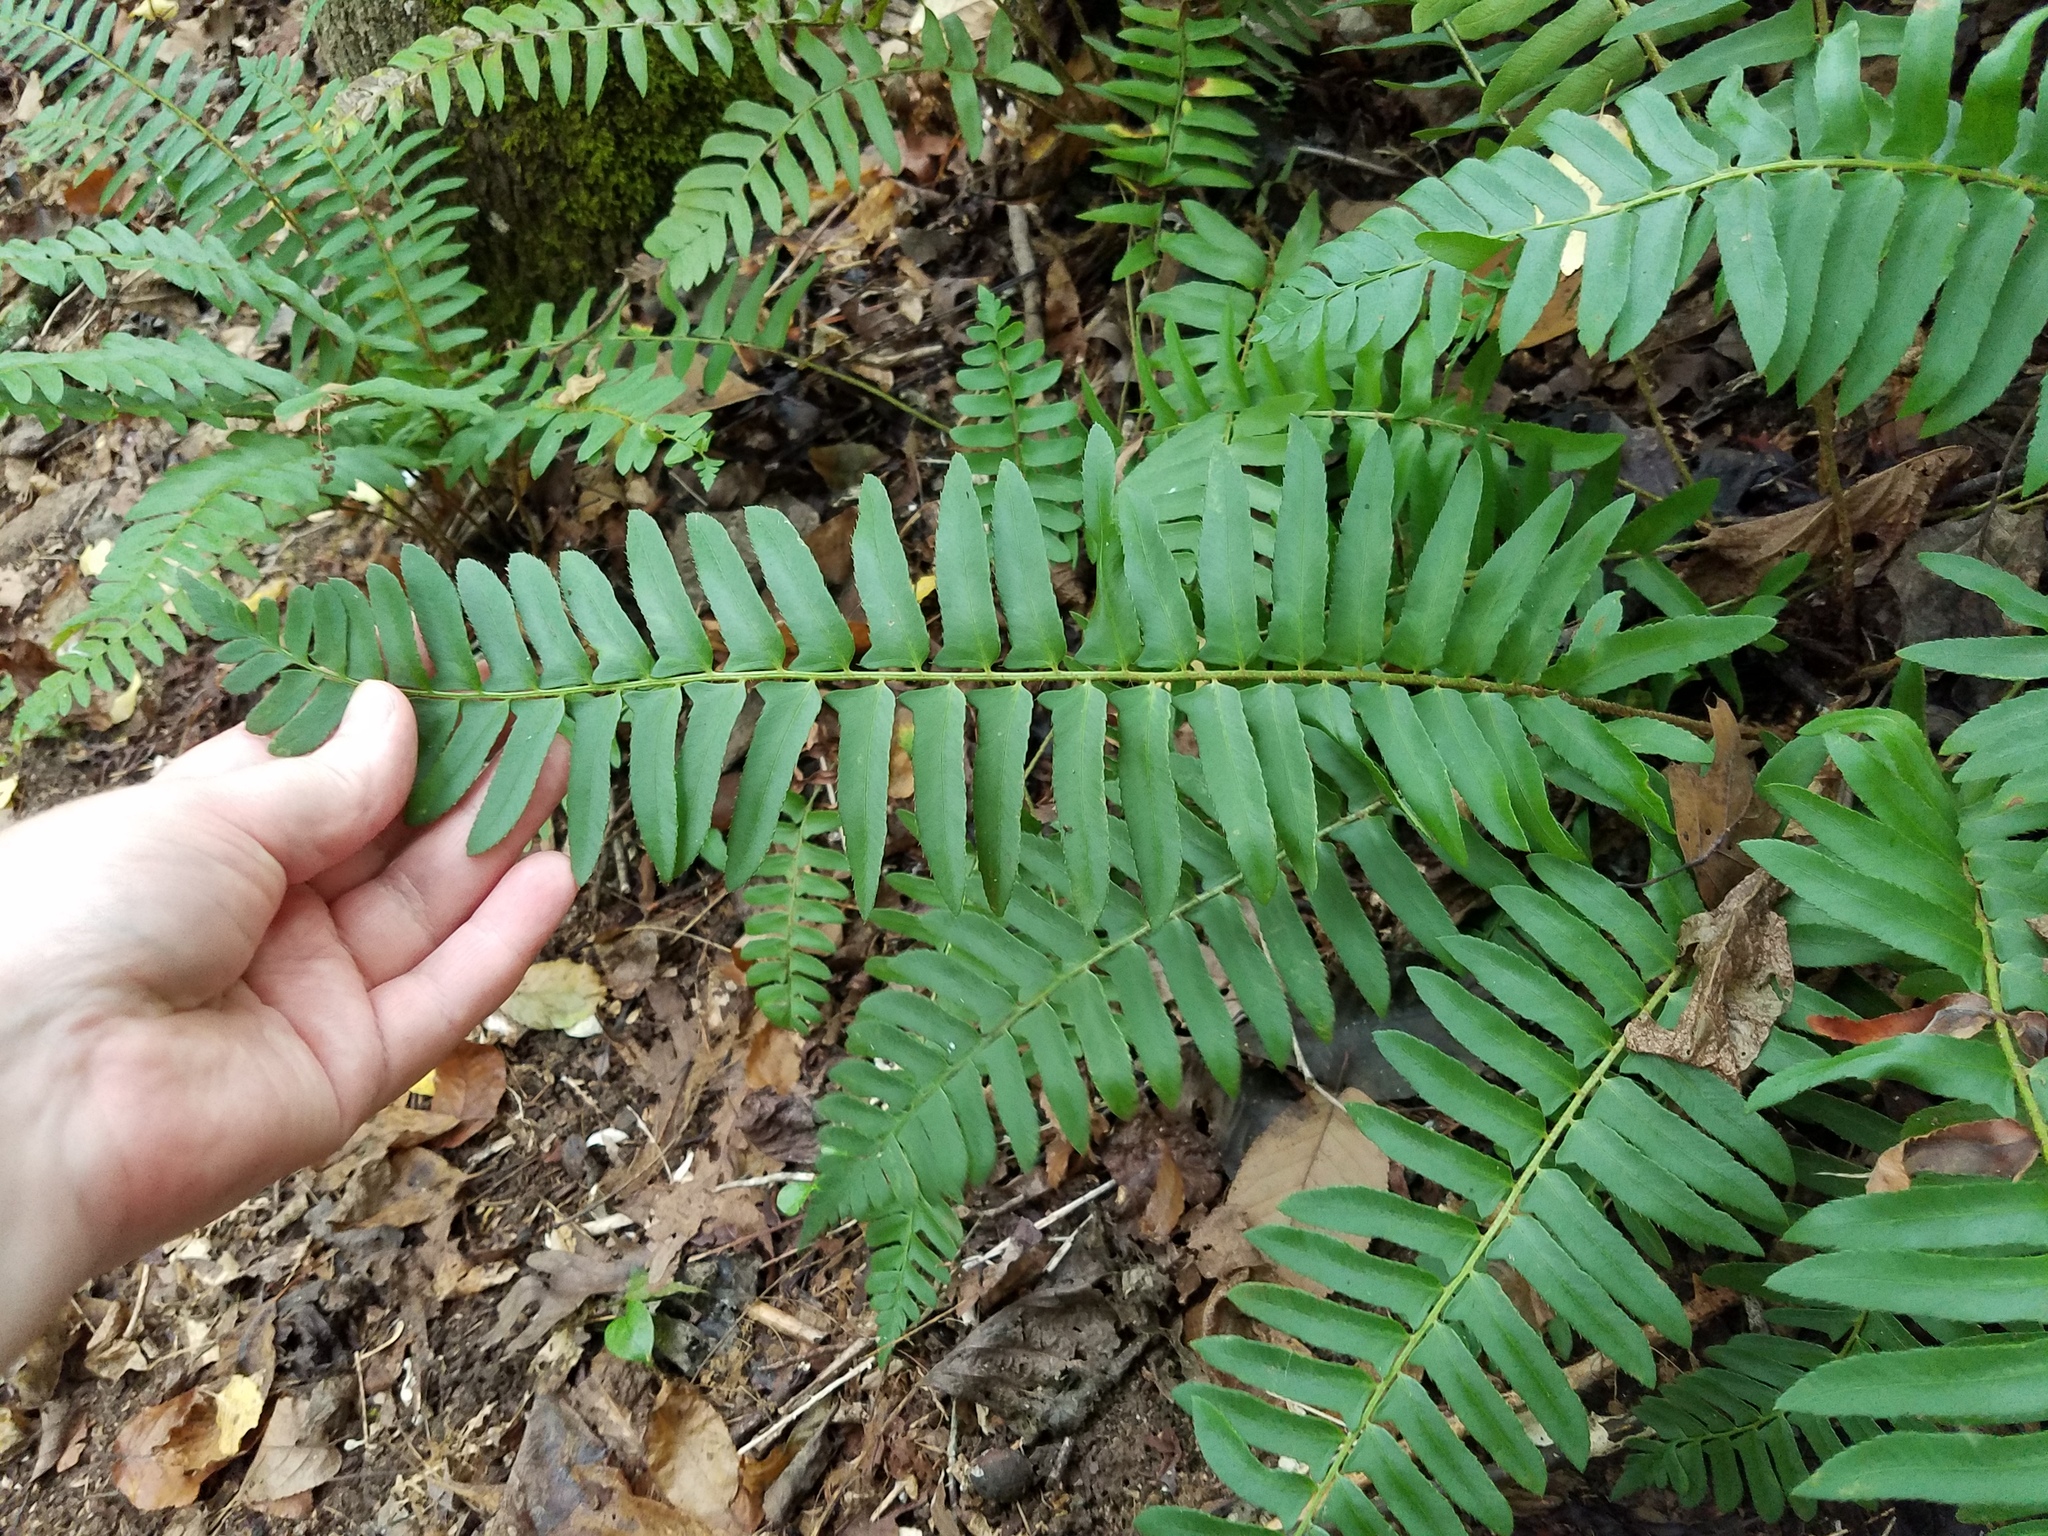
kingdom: Plantae
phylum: Tracheophyta
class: Polypodiopsida
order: Polypodiales
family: Dryopteridaceae
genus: Polystichum
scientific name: Polystichum acrostichoides
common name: Christmas fern
